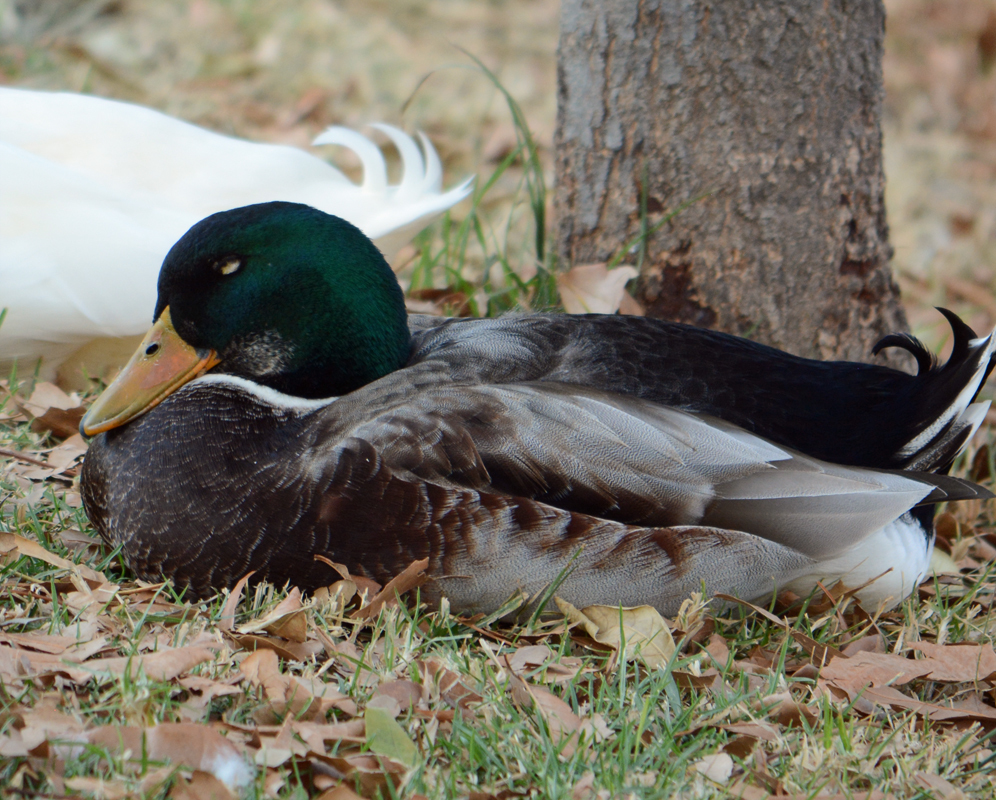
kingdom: Animalia
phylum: Chordata
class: Aves
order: Anseriformes
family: Anatidae
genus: Anas
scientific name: Anas platyrhynchos
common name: Mallard
